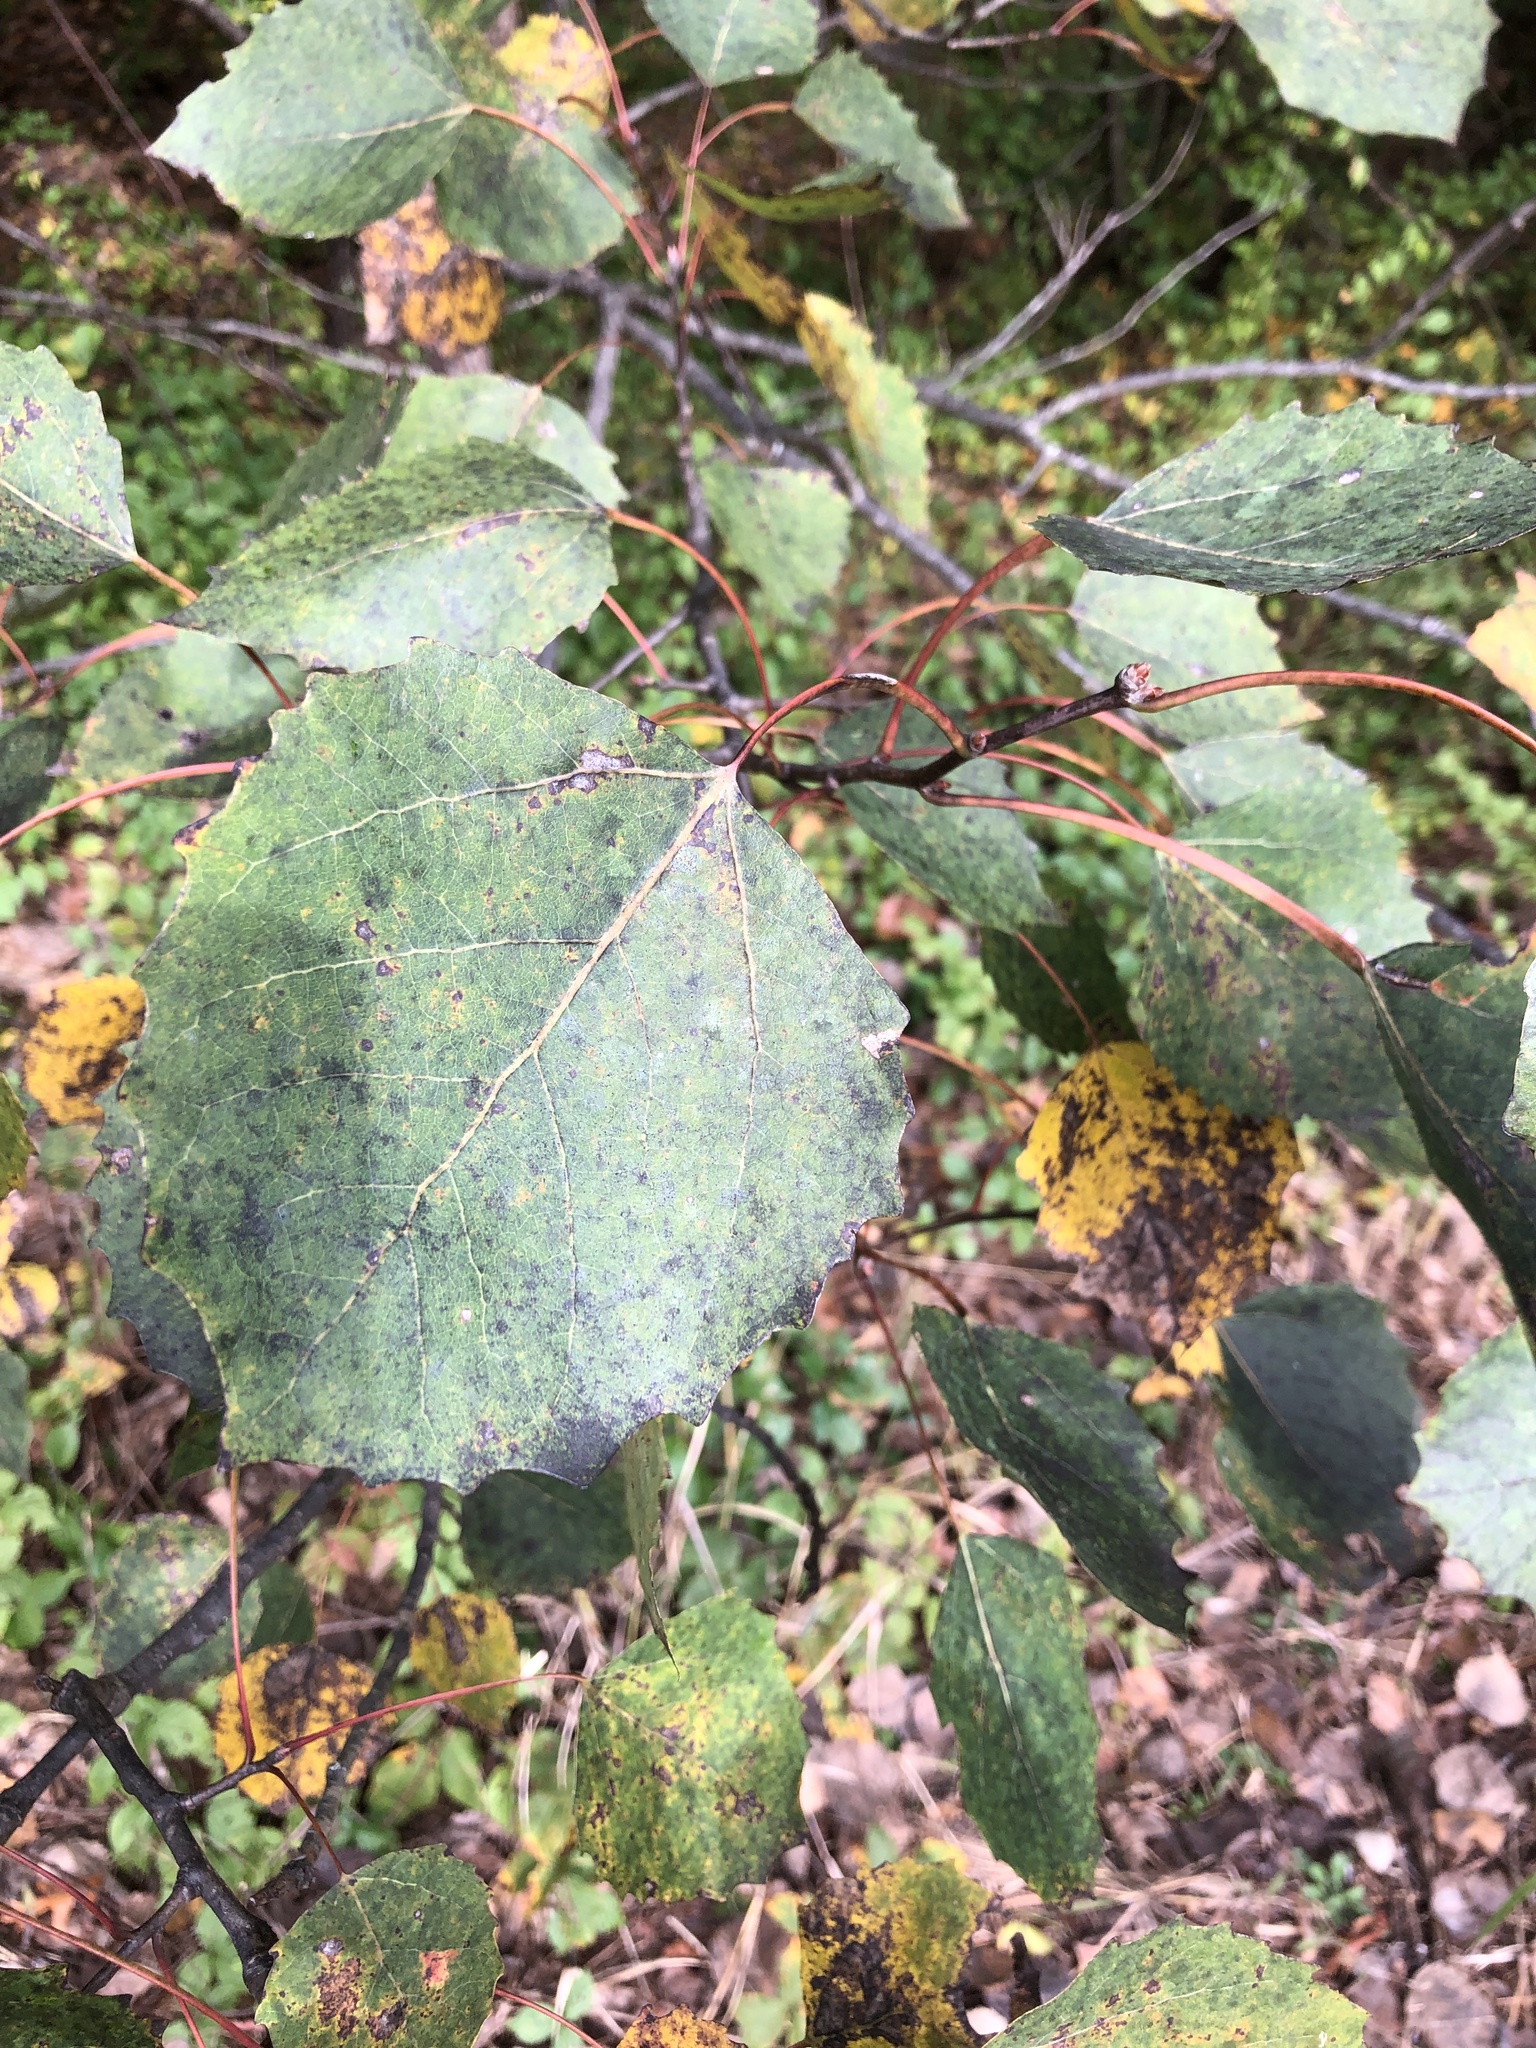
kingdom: Plantae
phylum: Tracheophyta
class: Magnoliopsida
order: Malpighiales
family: Salicaceae
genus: Populus
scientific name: Populus grandidentata
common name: Bigtooth aspen
